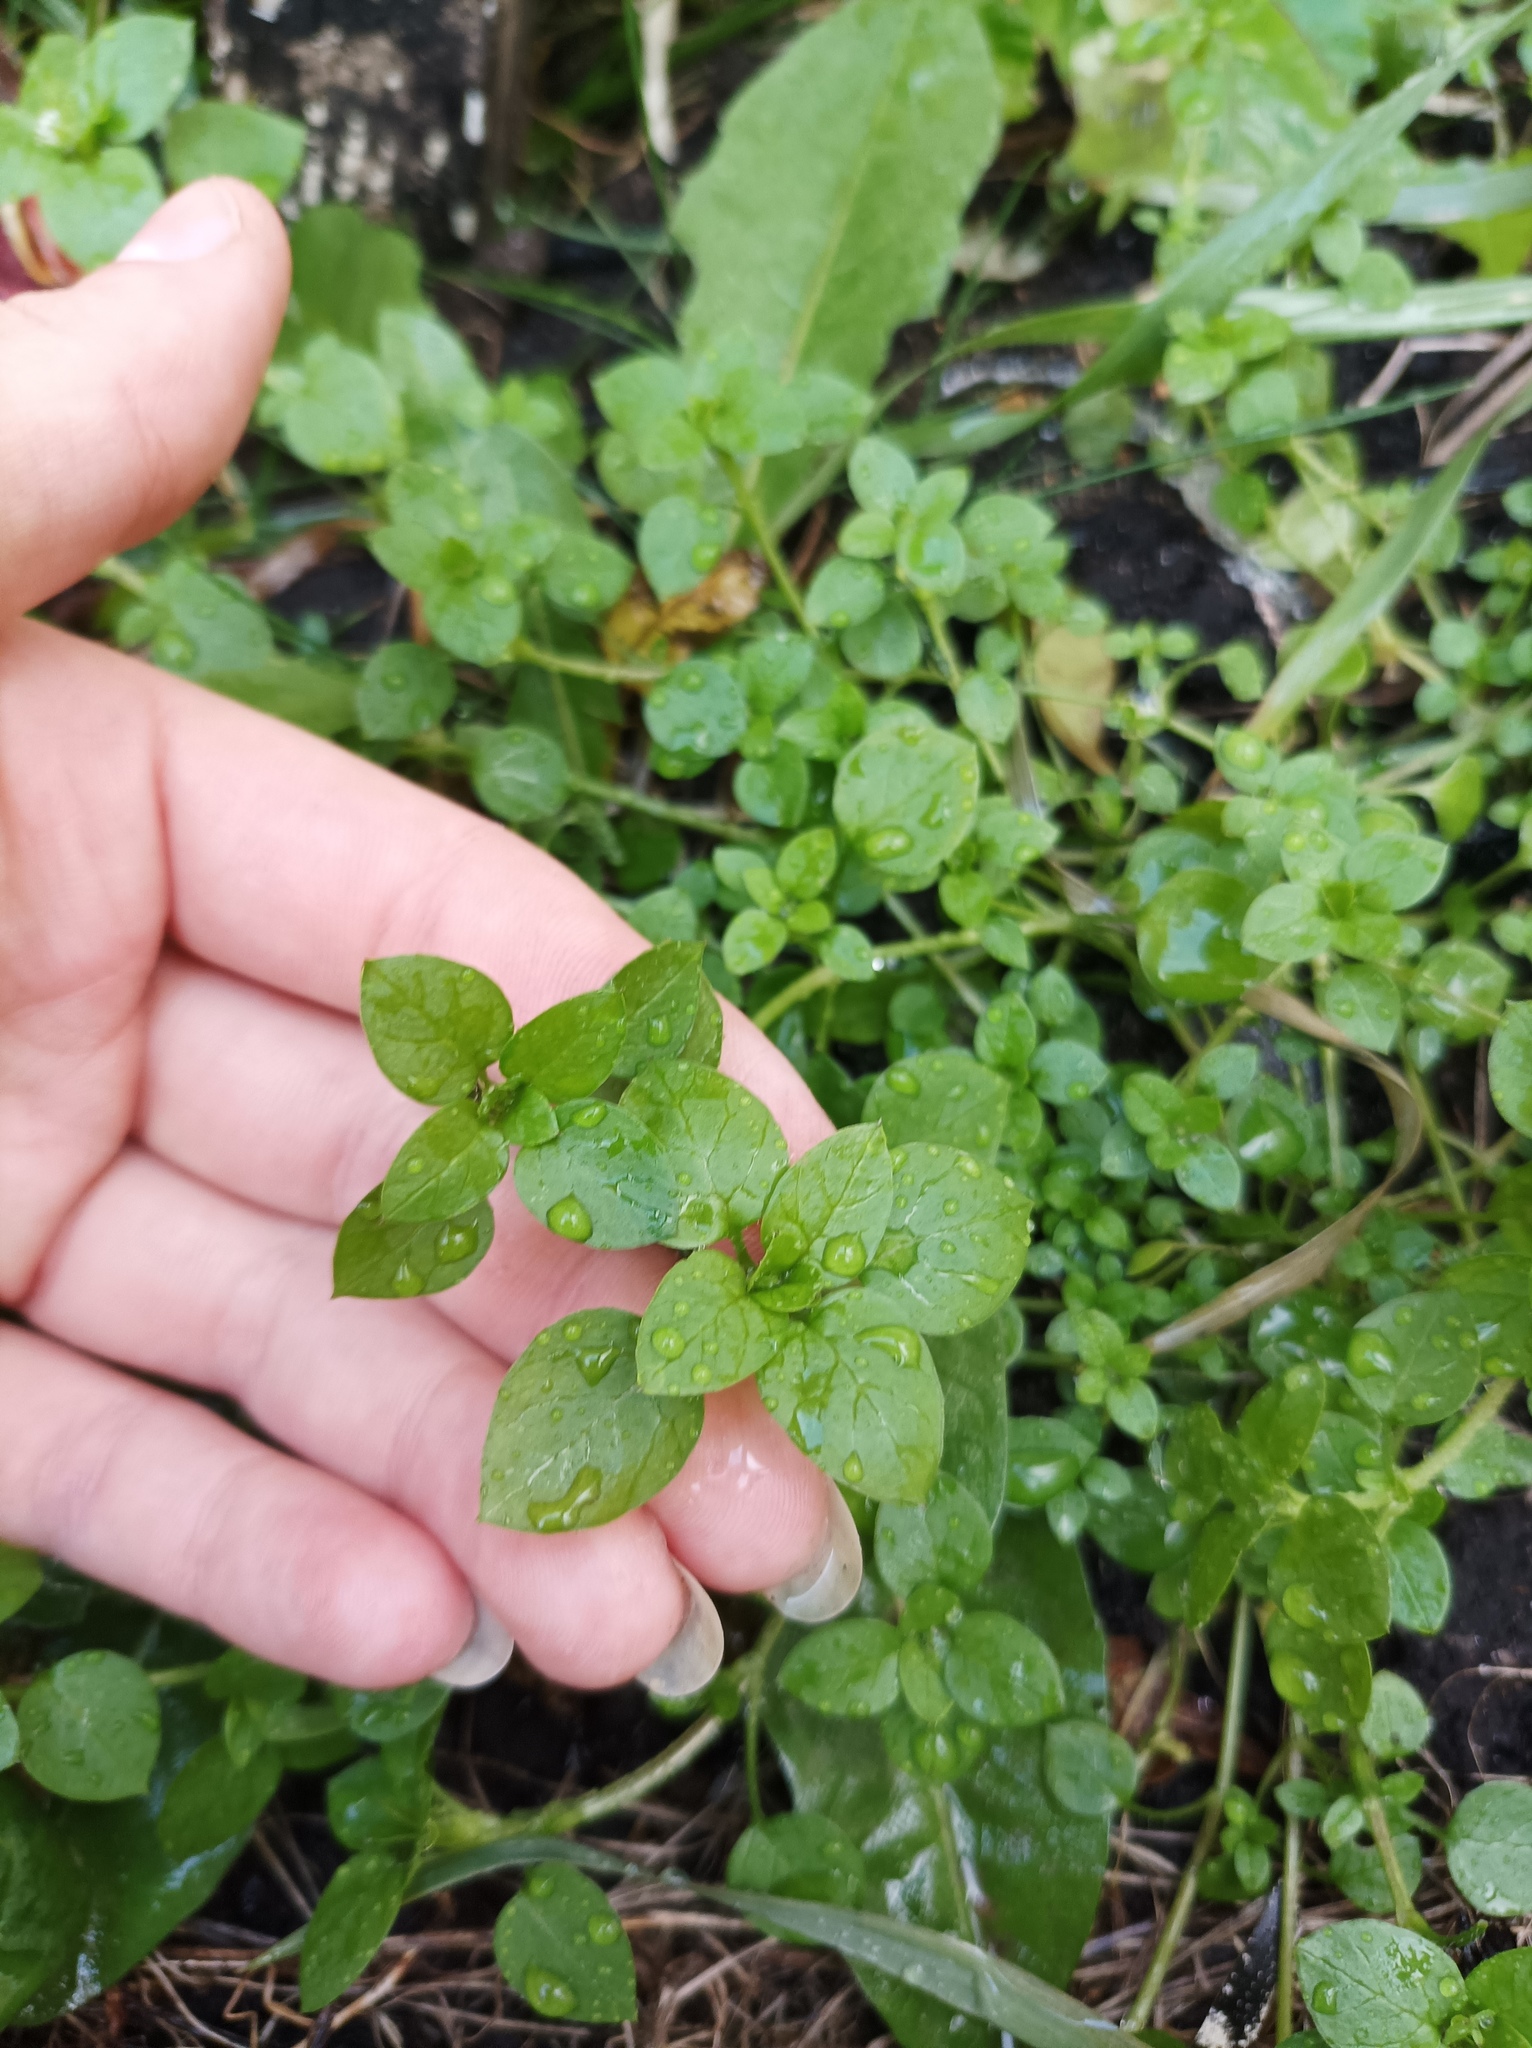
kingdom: Plantae
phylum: Tracheophyta
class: Magnoliopsida
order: Caryophyllales
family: Caryophyllaceae
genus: Stellaria
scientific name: Stellaria media
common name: Common chickweed
